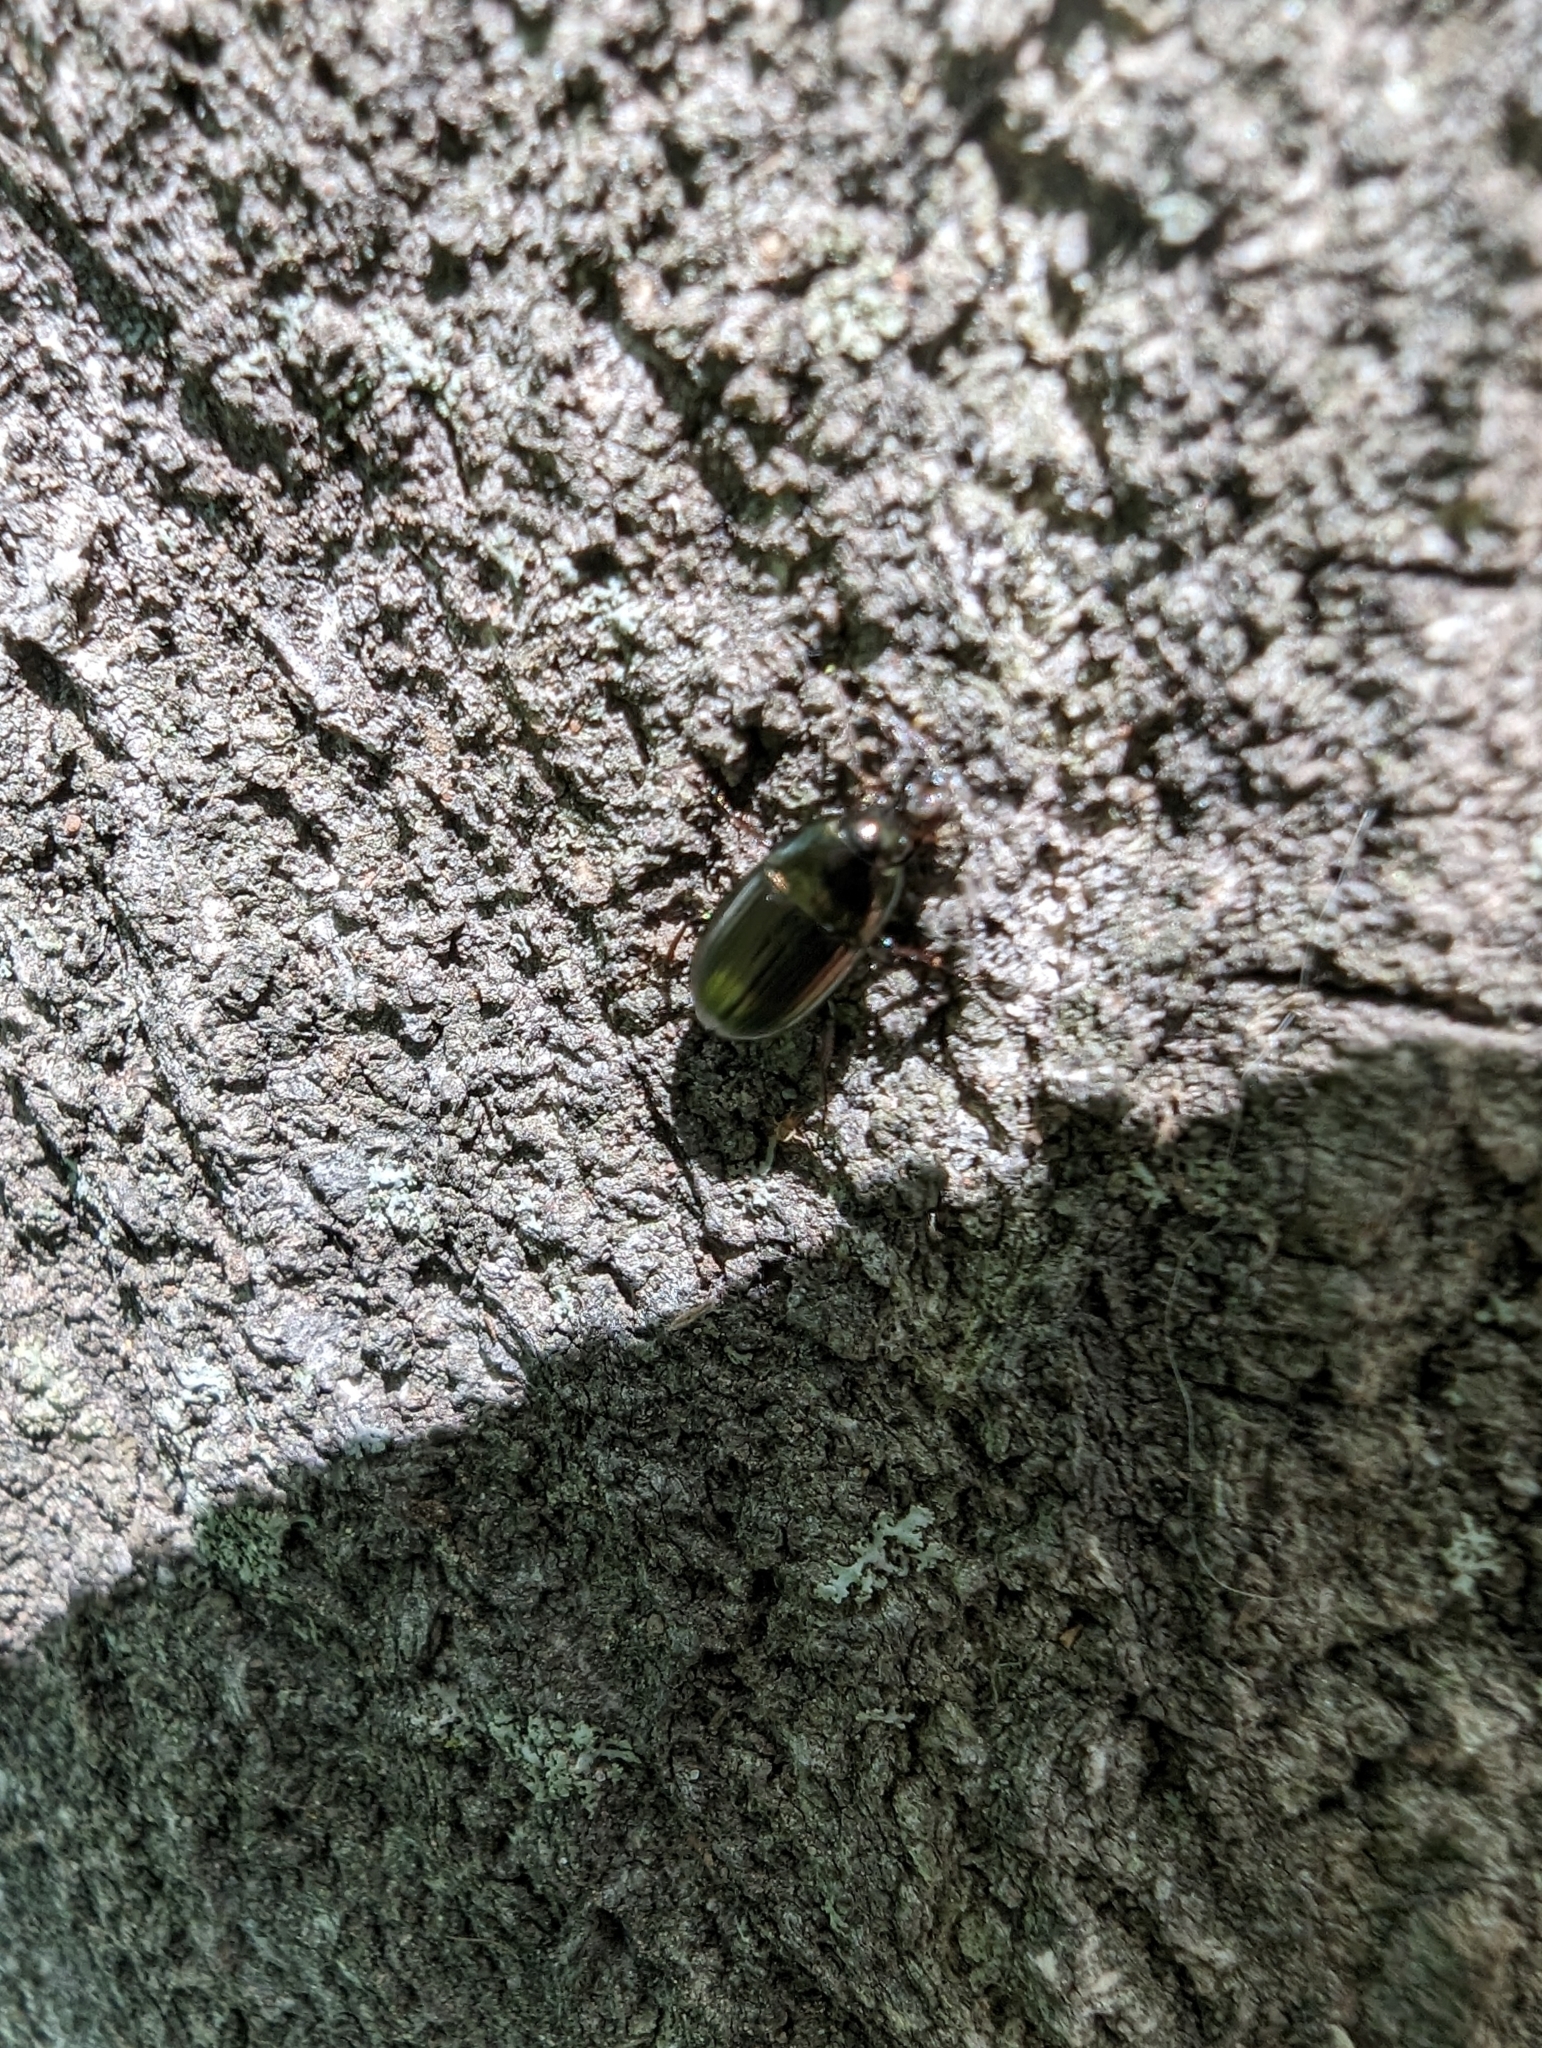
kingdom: Animalia
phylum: Arthropoda
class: Insecta
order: Coleoptera
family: Carabidae
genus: Amara
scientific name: Amara aenea
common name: Common sun beetle
